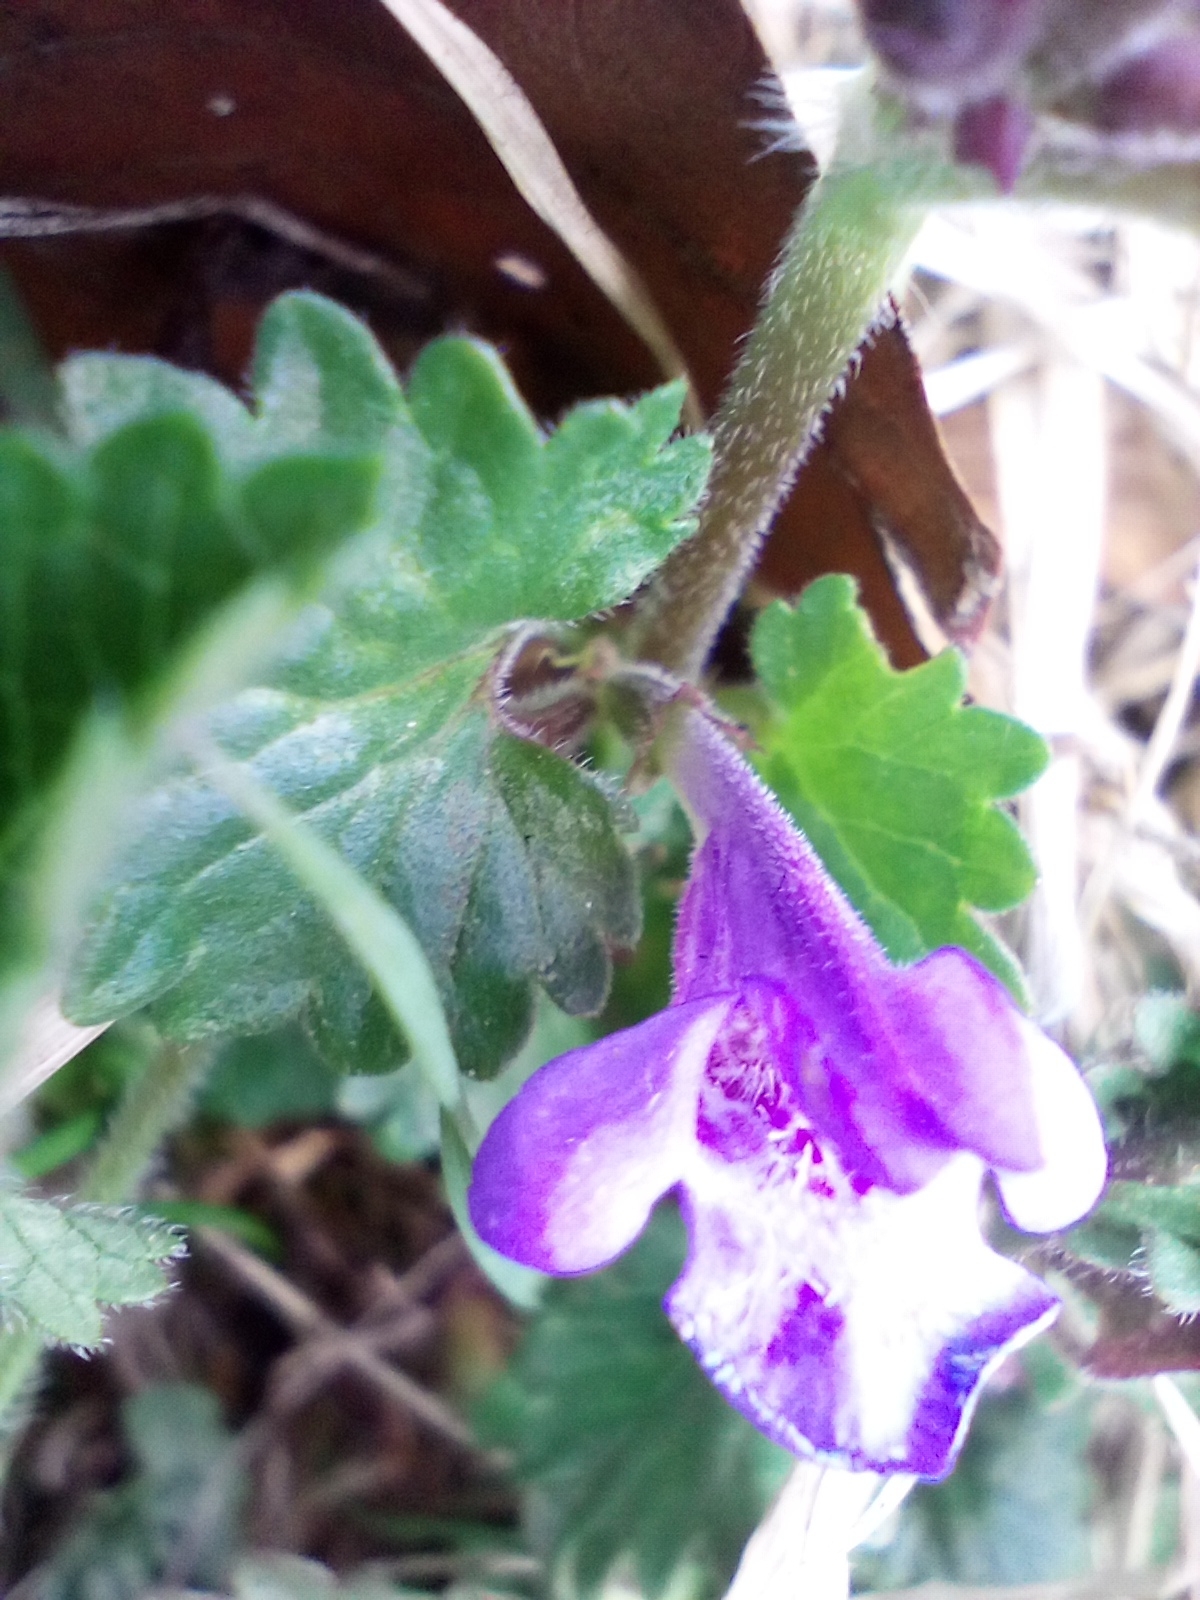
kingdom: Plantae
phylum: Tracheophyta
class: Magnoliopsida
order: Lamiales
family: Lamiaceae
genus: Glechoma
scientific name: Glechoma hederacea
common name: Ground ivy
